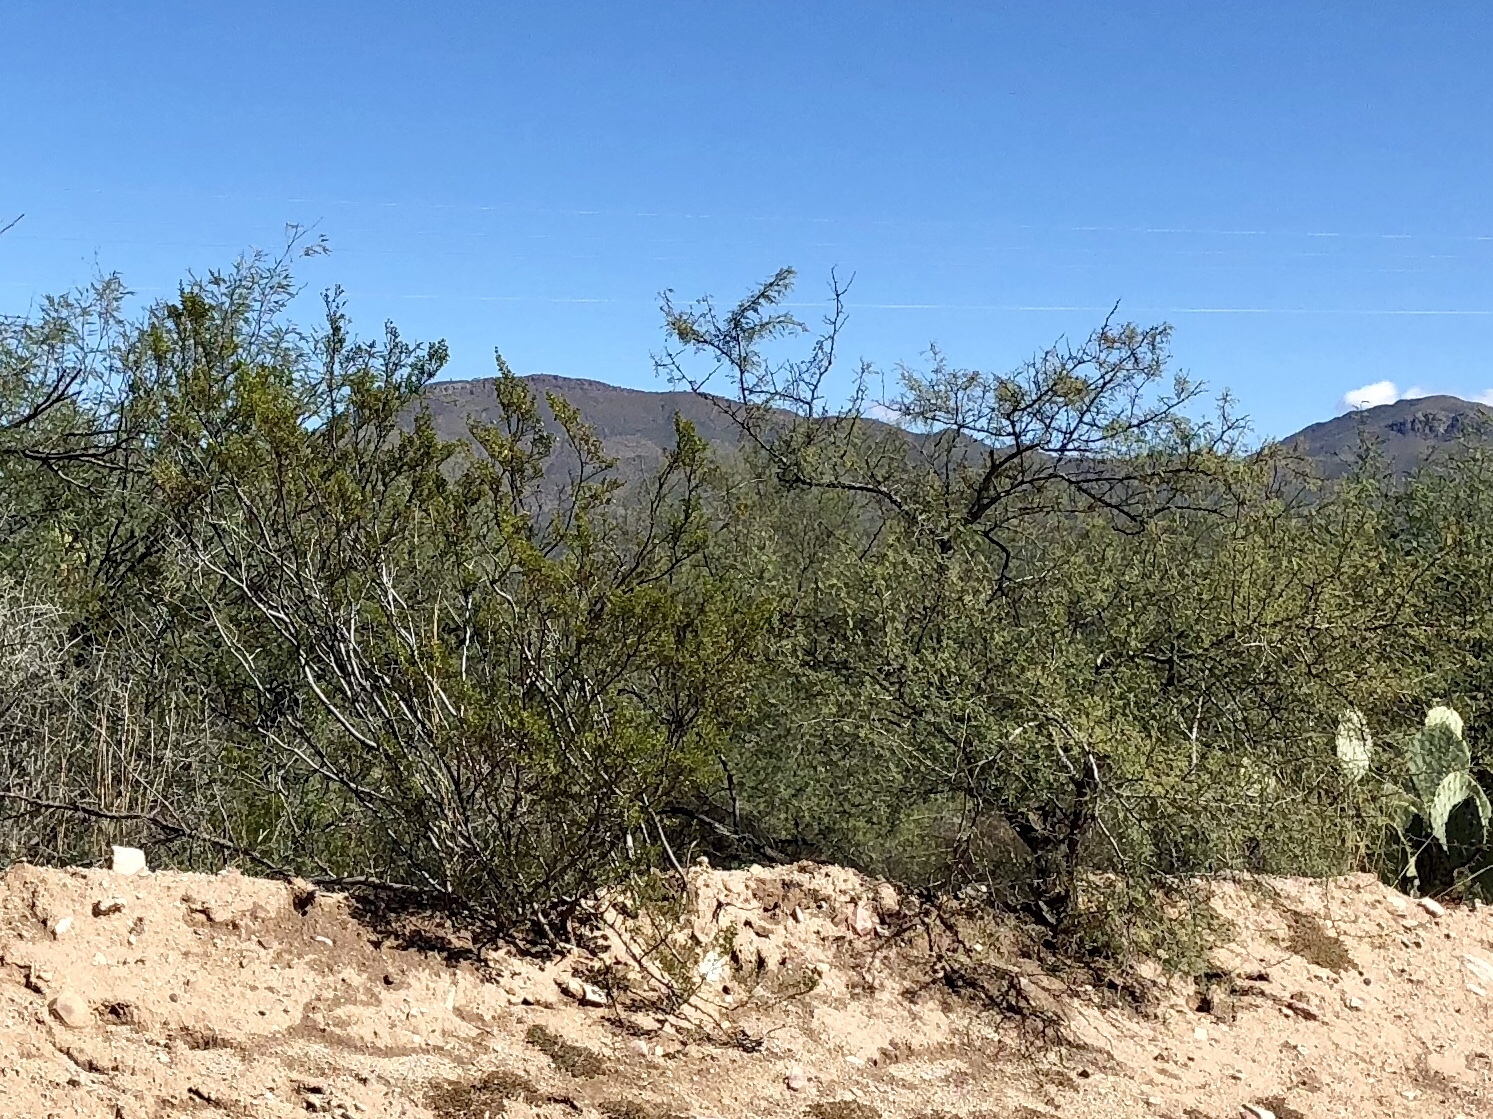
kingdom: Plantae
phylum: Tracheophyta
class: Magnoliopsida
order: Zygophyllales
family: Zygophyllaceae
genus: Larrea
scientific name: Larrea tridentata
